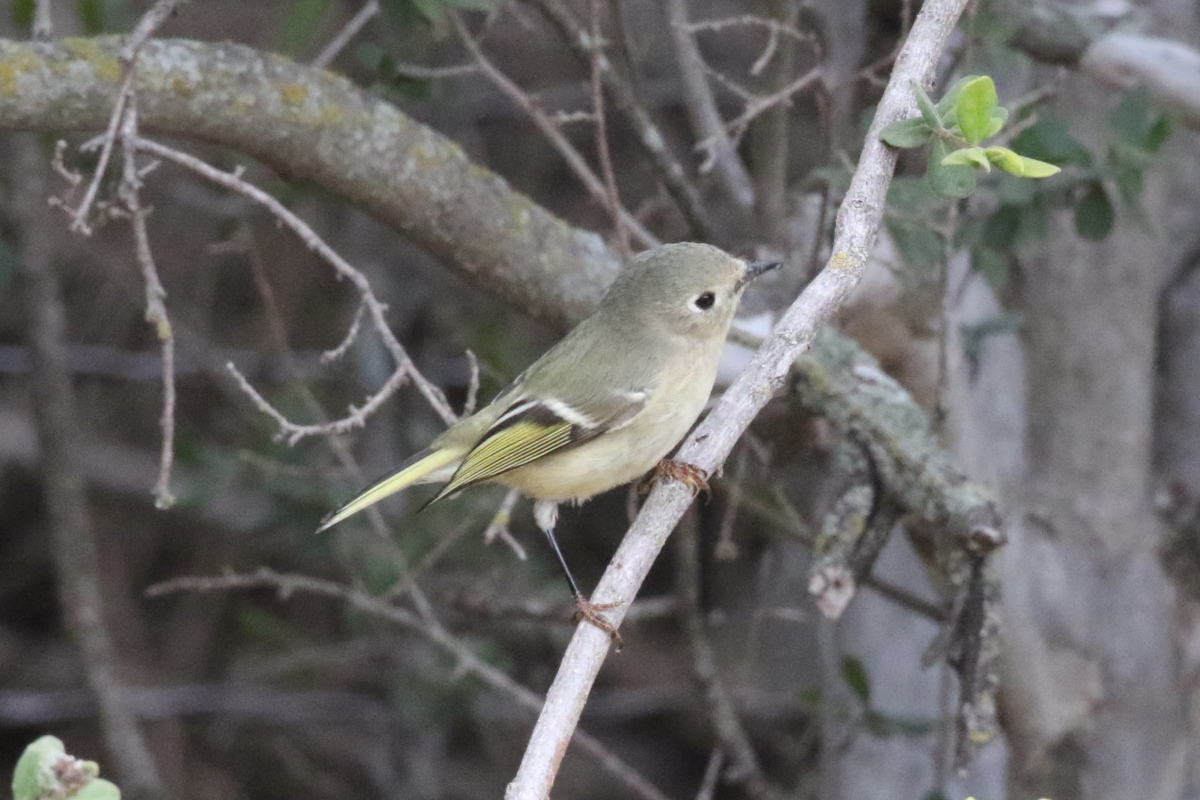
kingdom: Animalia
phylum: Chordata
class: Aves
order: Passeriformes
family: Regulidae
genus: Regulus
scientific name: Regulus calendula
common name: Ruby-crowned kinglet
